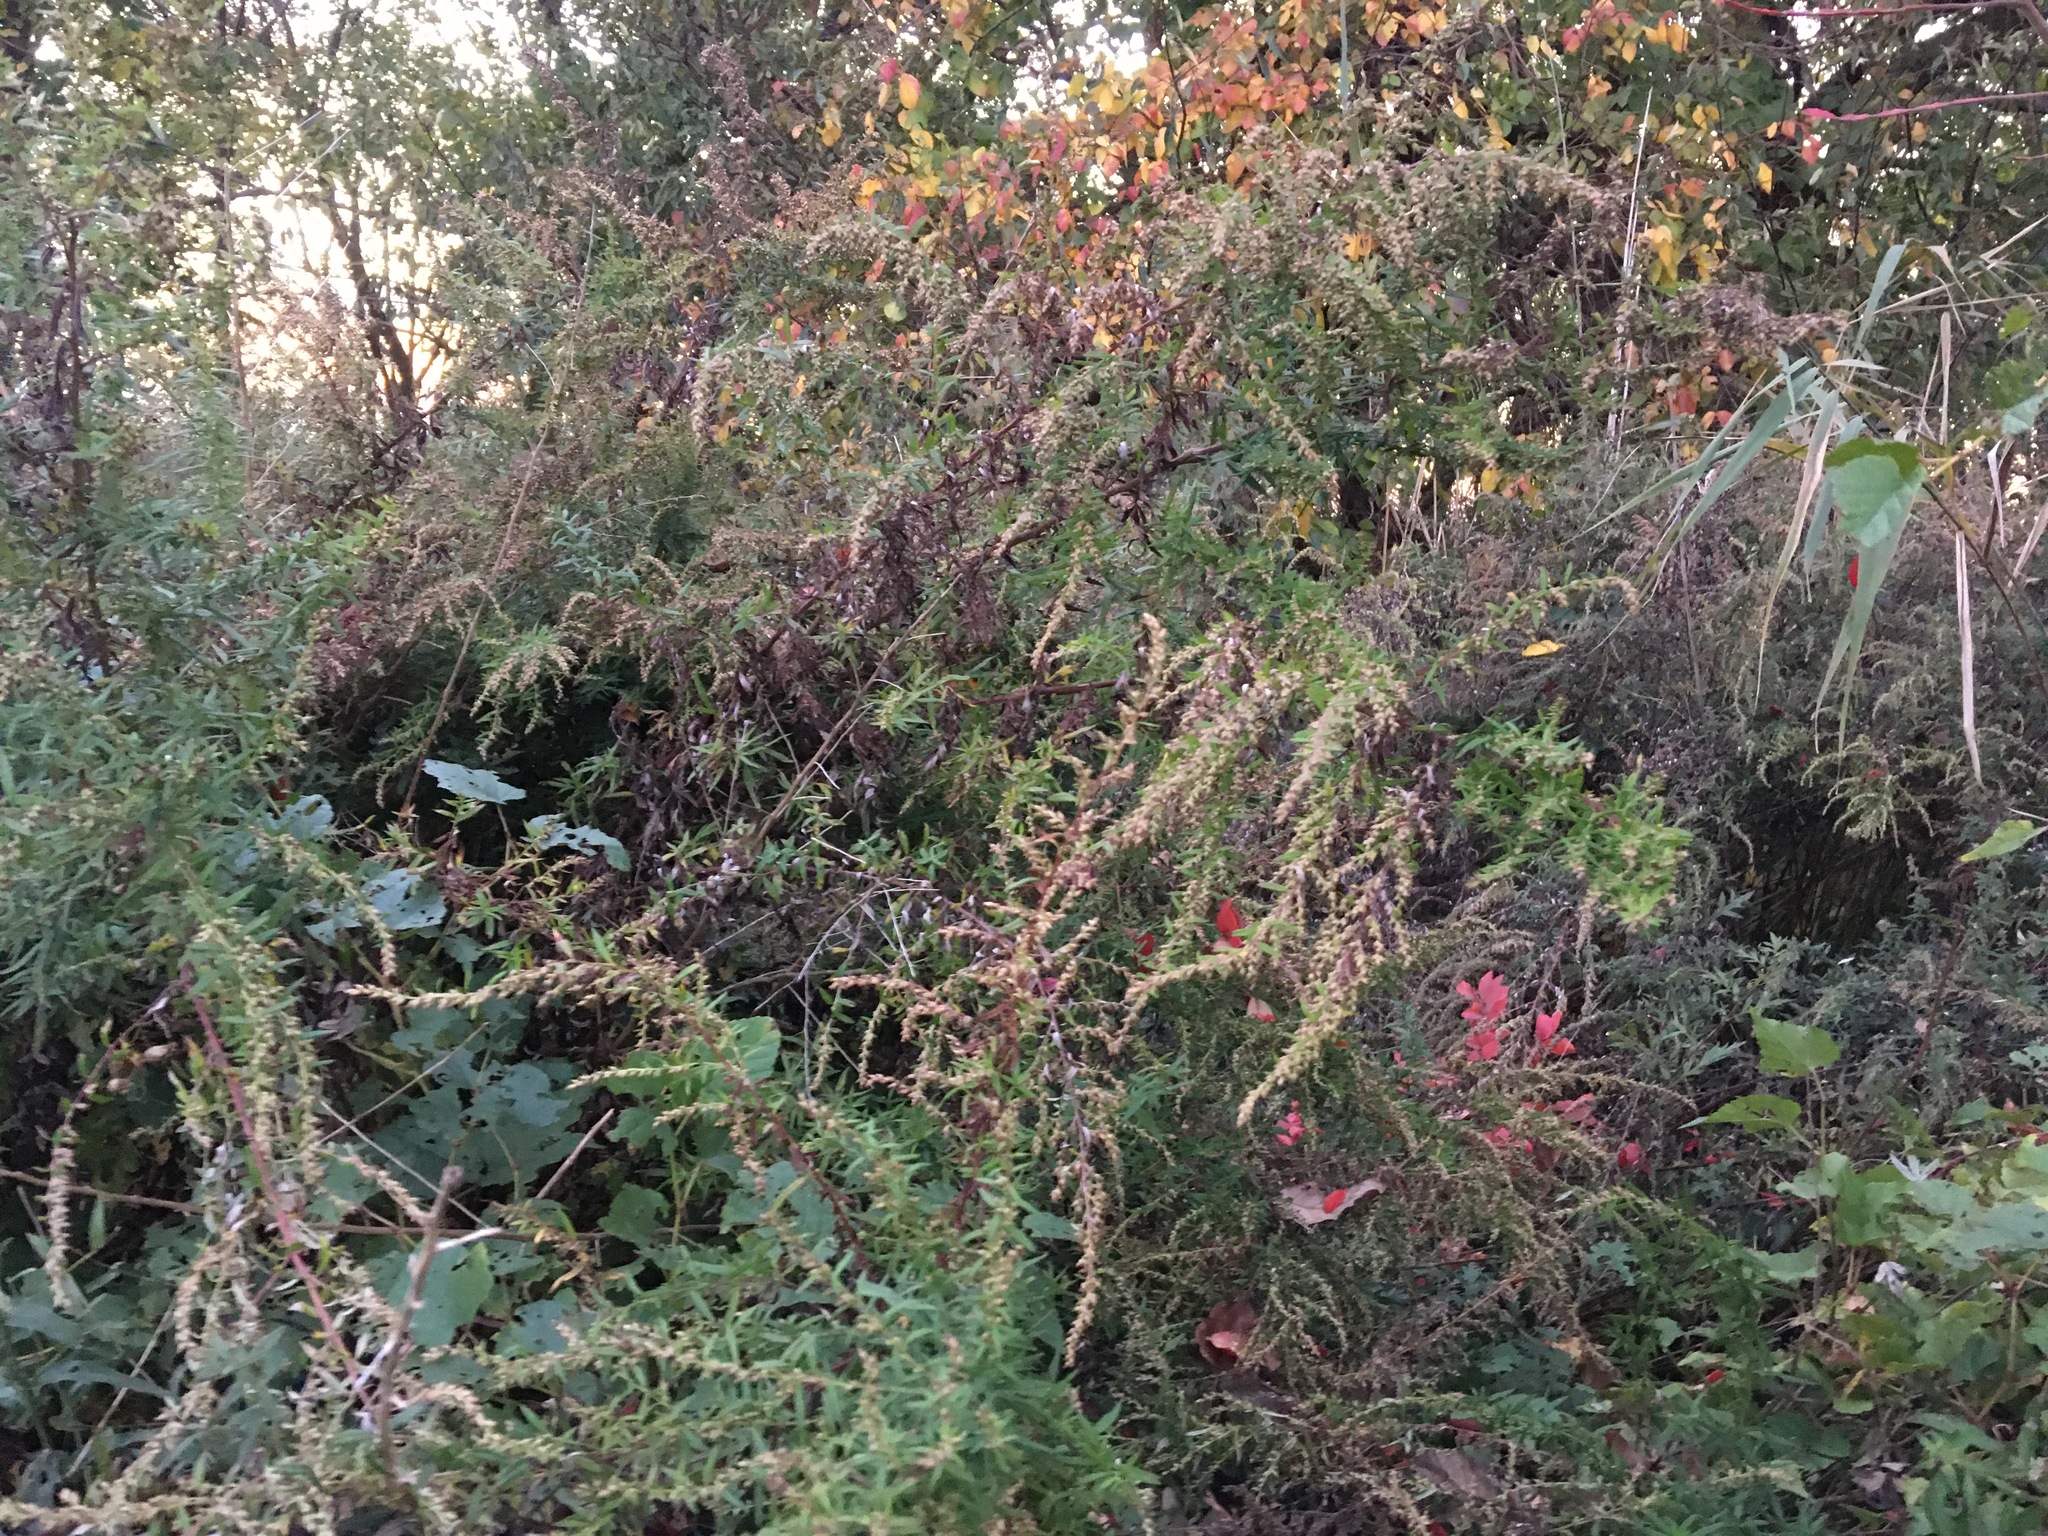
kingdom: Plantae
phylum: Tracheophyta
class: Magnoliopsida
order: Asterales
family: Asteraceae
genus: Artemisia
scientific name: Artemisia vulgaris
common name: Mugwort
